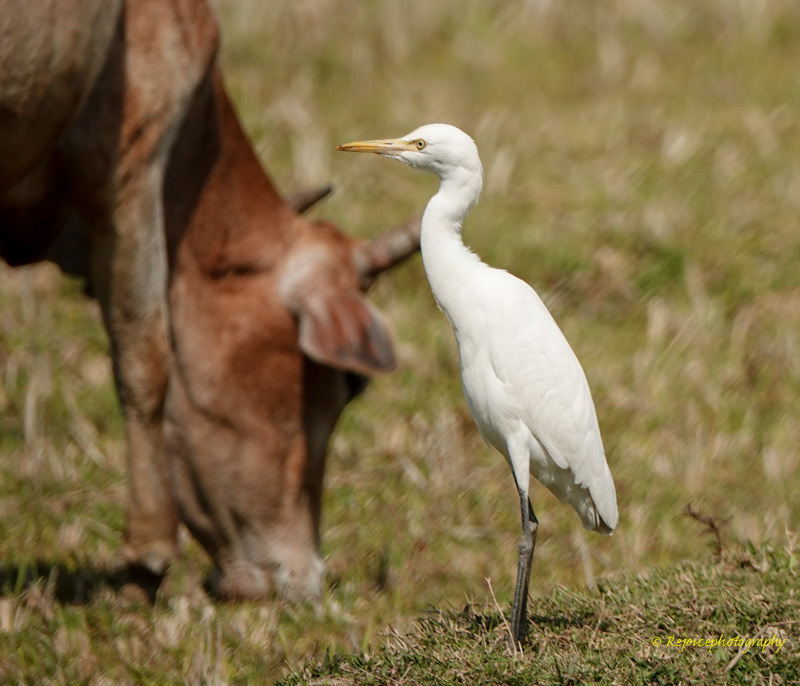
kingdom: Animalia
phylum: Chordata
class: Aves
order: Pelecaniformes
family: Ardeidae
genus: Bubulcus
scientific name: Bubulcus coromandus
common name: Eastern cattle egret
